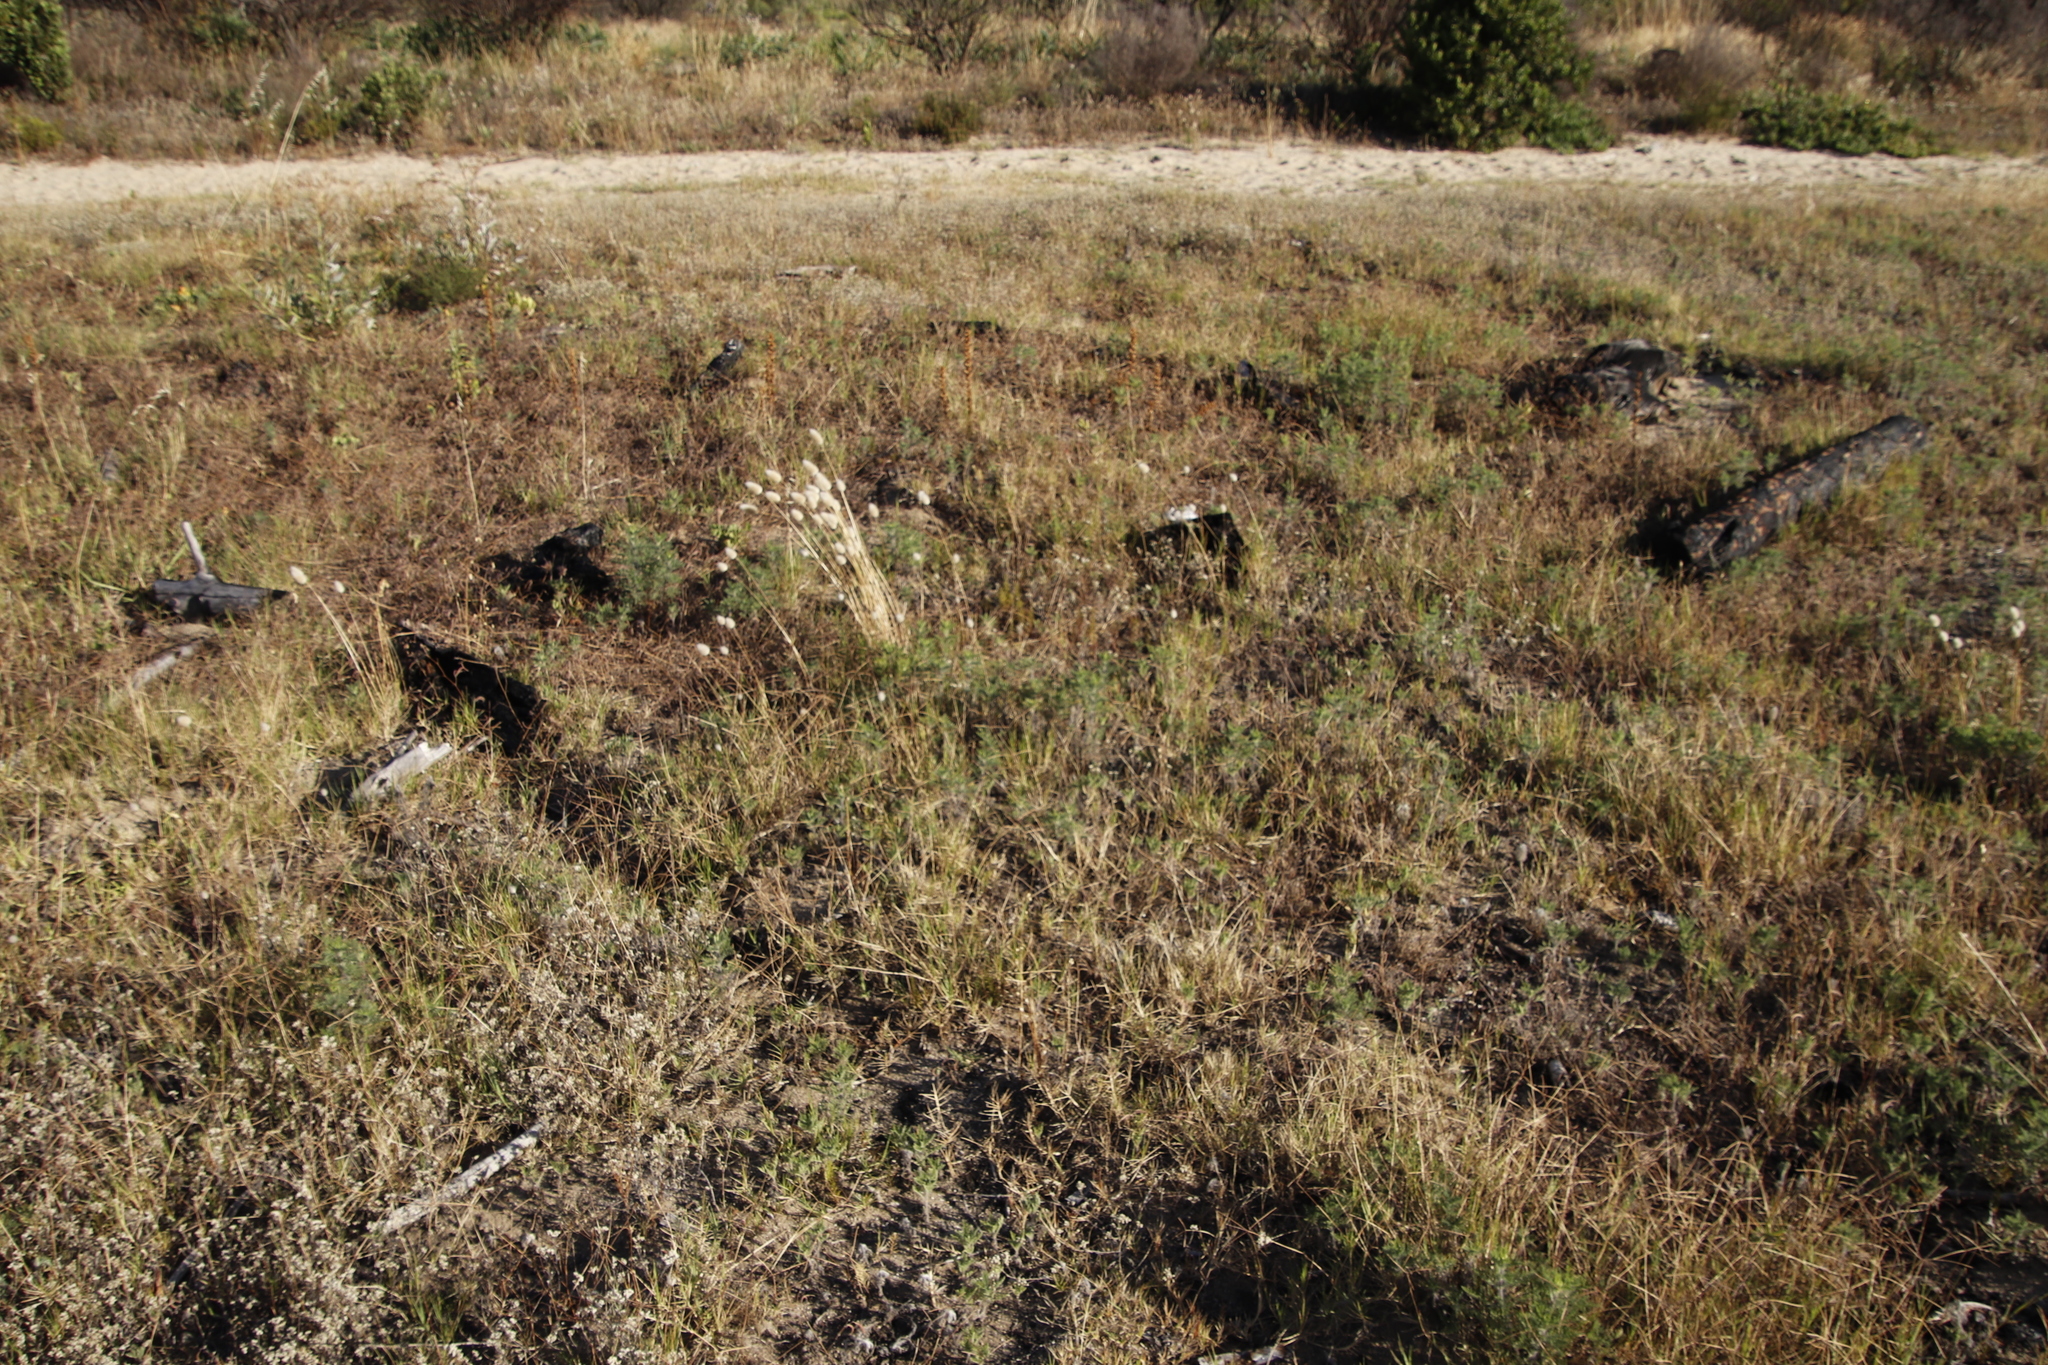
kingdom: Plantae
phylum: Tracheophyta
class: Liliopsida
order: Poales
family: Poaceae
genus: Lagurus
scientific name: Lagurus ovatus
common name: Hare's-tail
